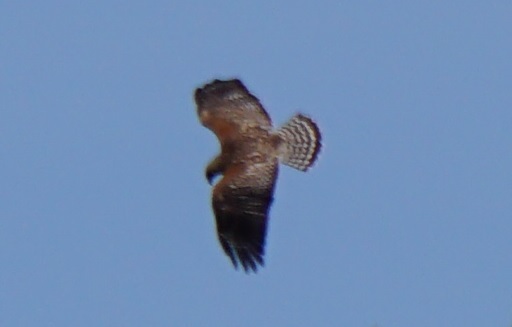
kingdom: Animalia
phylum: Chordata
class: Aves
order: Accipitriformes
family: Accipitridae
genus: Buteo
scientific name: Buteo lineatus
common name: Red-shouldered hawk
